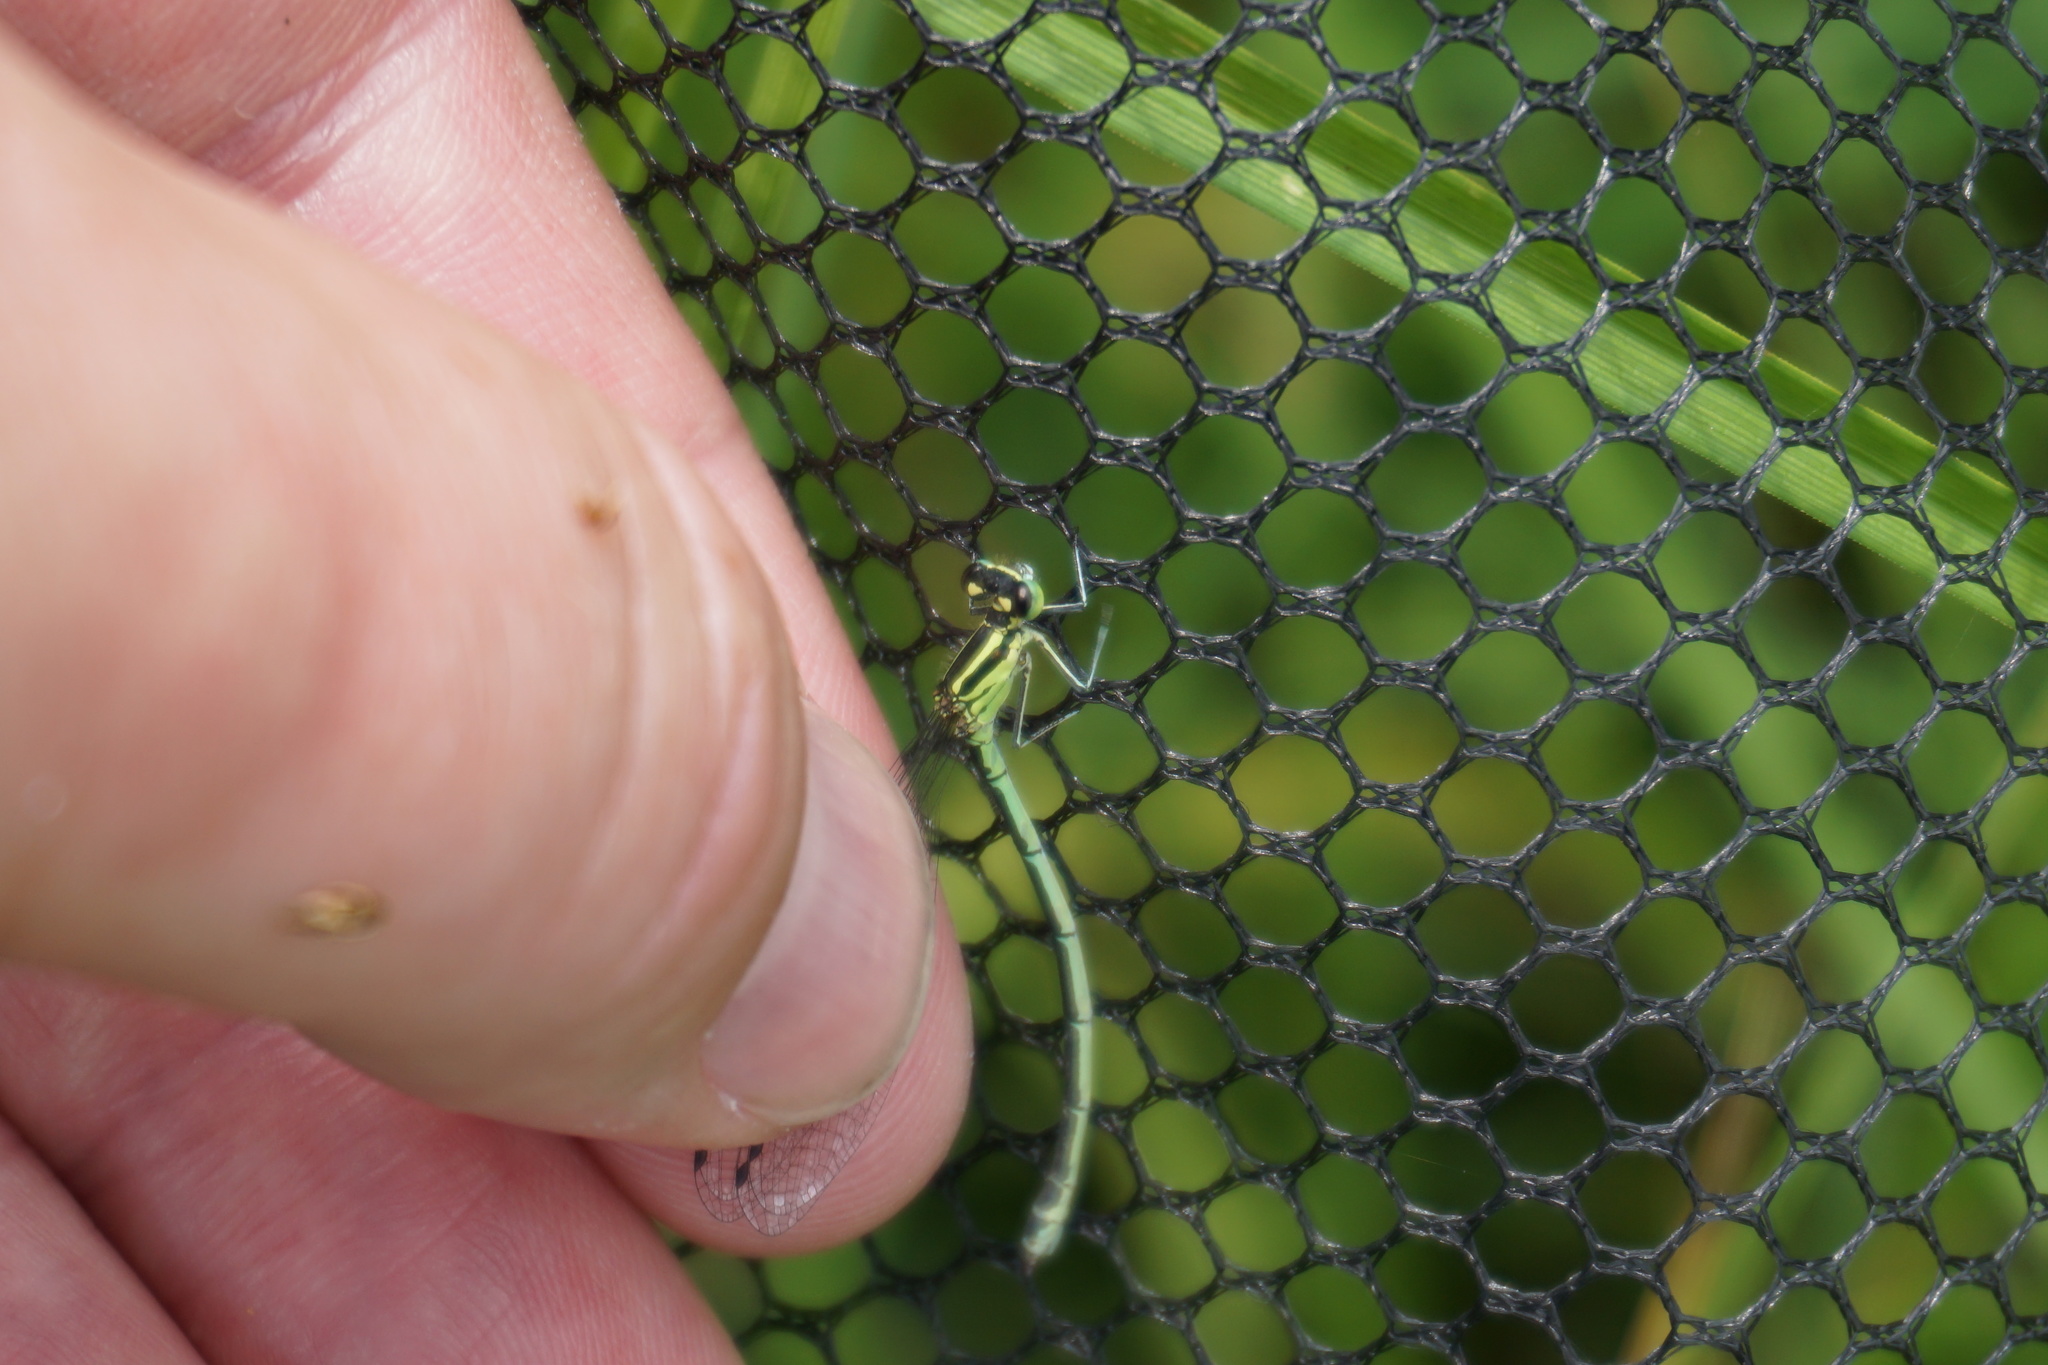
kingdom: Animalia
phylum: Arthropoda
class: Insecta
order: Odonata
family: Coenagrionidae
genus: Coenagrion
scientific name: Coenagrion puella
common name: Azure damselfly
